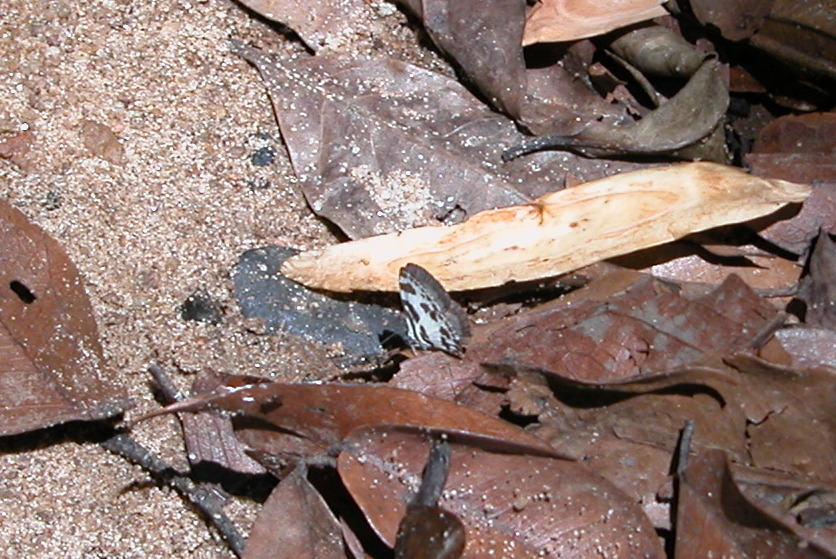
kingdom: Animalia
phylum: Arthropoda
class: Insecta
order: Lepidoptera
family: Lycaenidae
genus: Discolampa
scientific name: Discolampa ethion
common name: Banded blue pierrot
